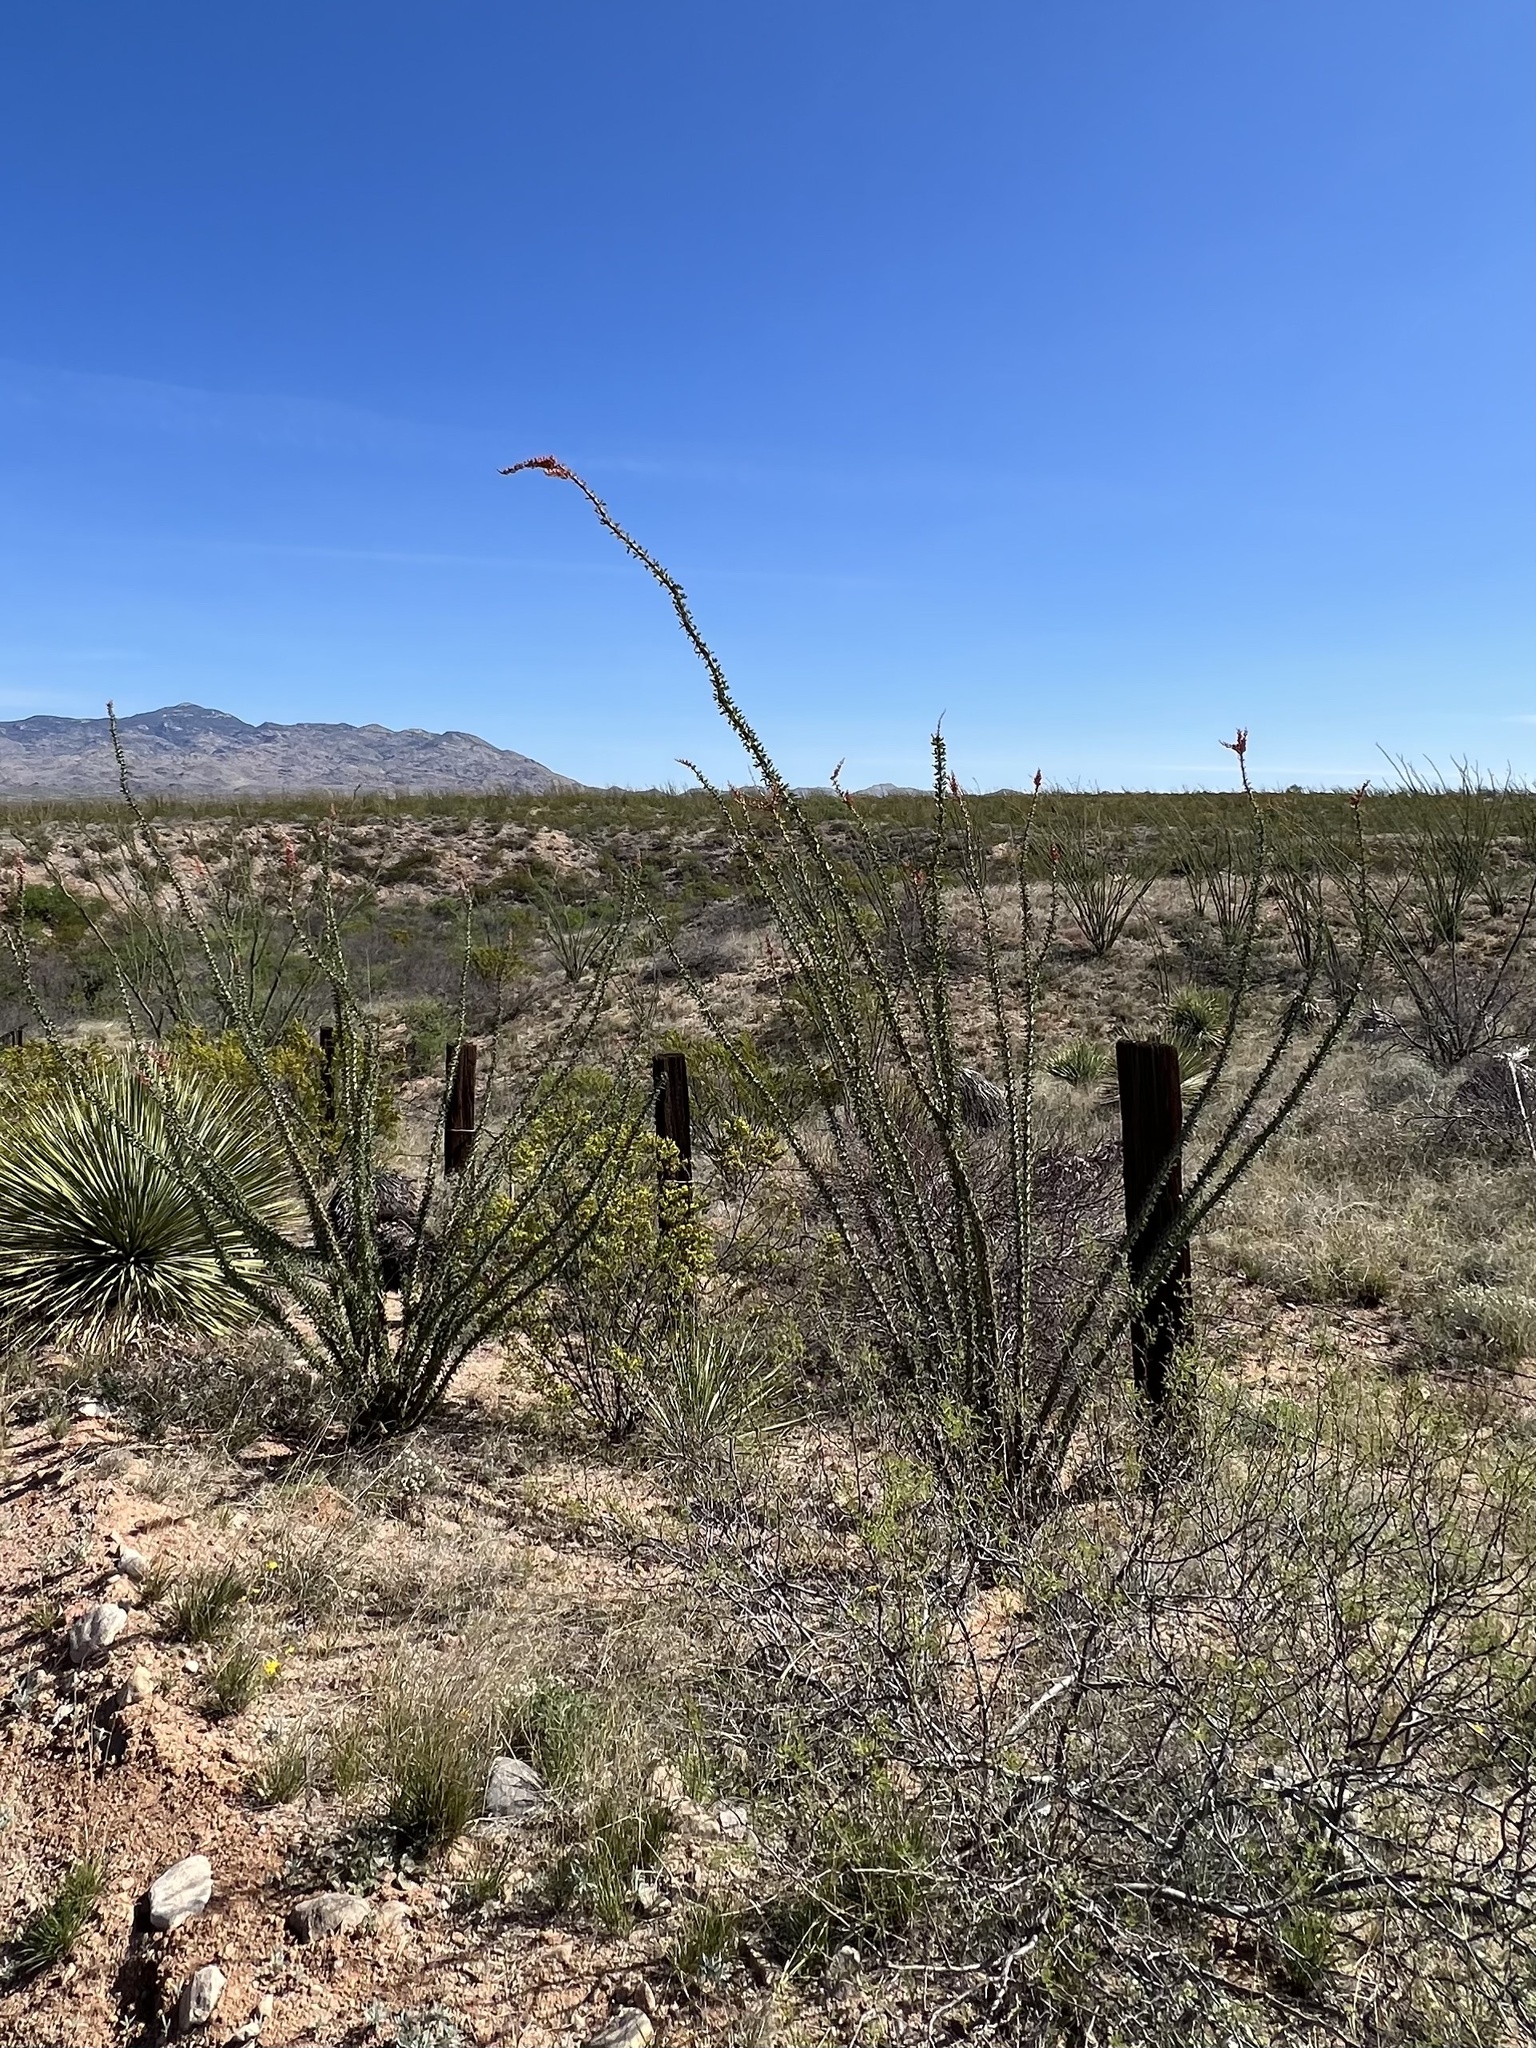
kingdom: Plantae
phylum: Tracheophyta
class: Magnoliopsida
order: Ericales
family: Fouquieriaceae
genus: Fouquieria
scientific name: Fouquieria splendens
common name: Vine-cactus
